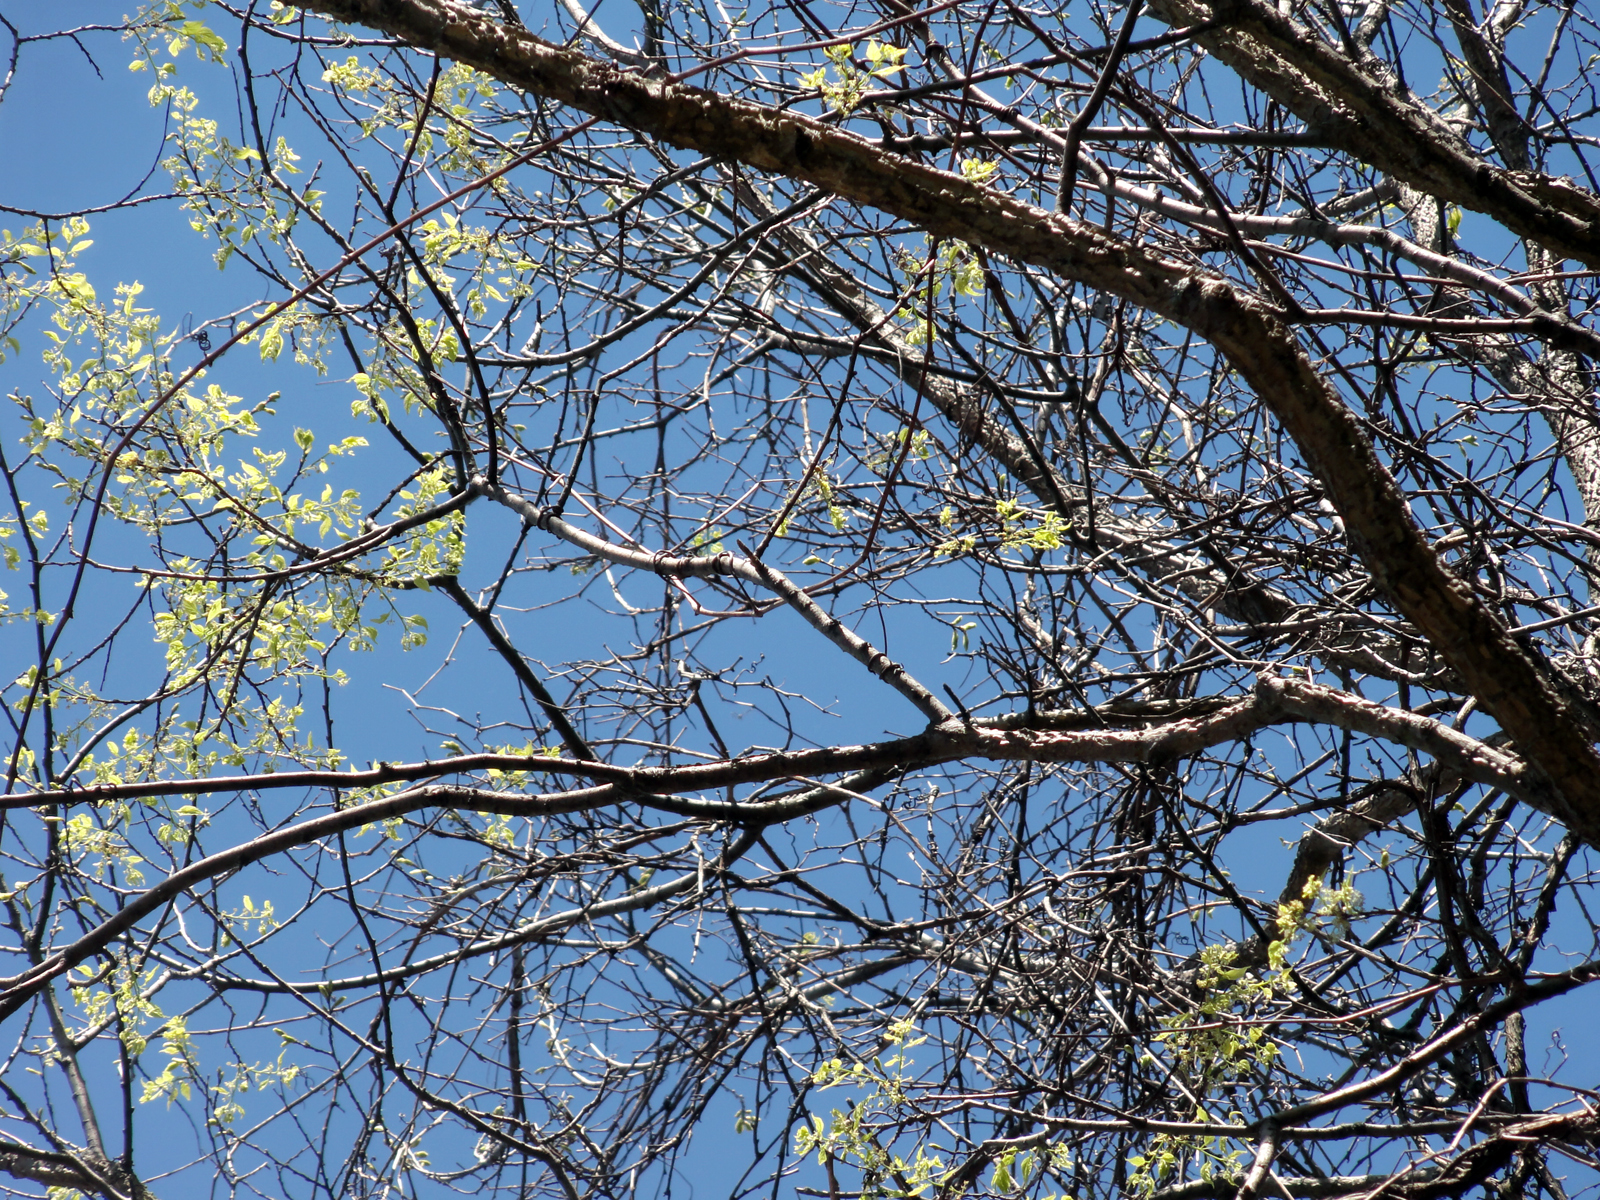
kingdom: Plantae
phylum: Tracheophyta
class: Magnoliopsida
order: Rosales
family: Cannabaceae
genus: Celtis
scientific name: Celtis occidentalis
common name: Common hackberry
